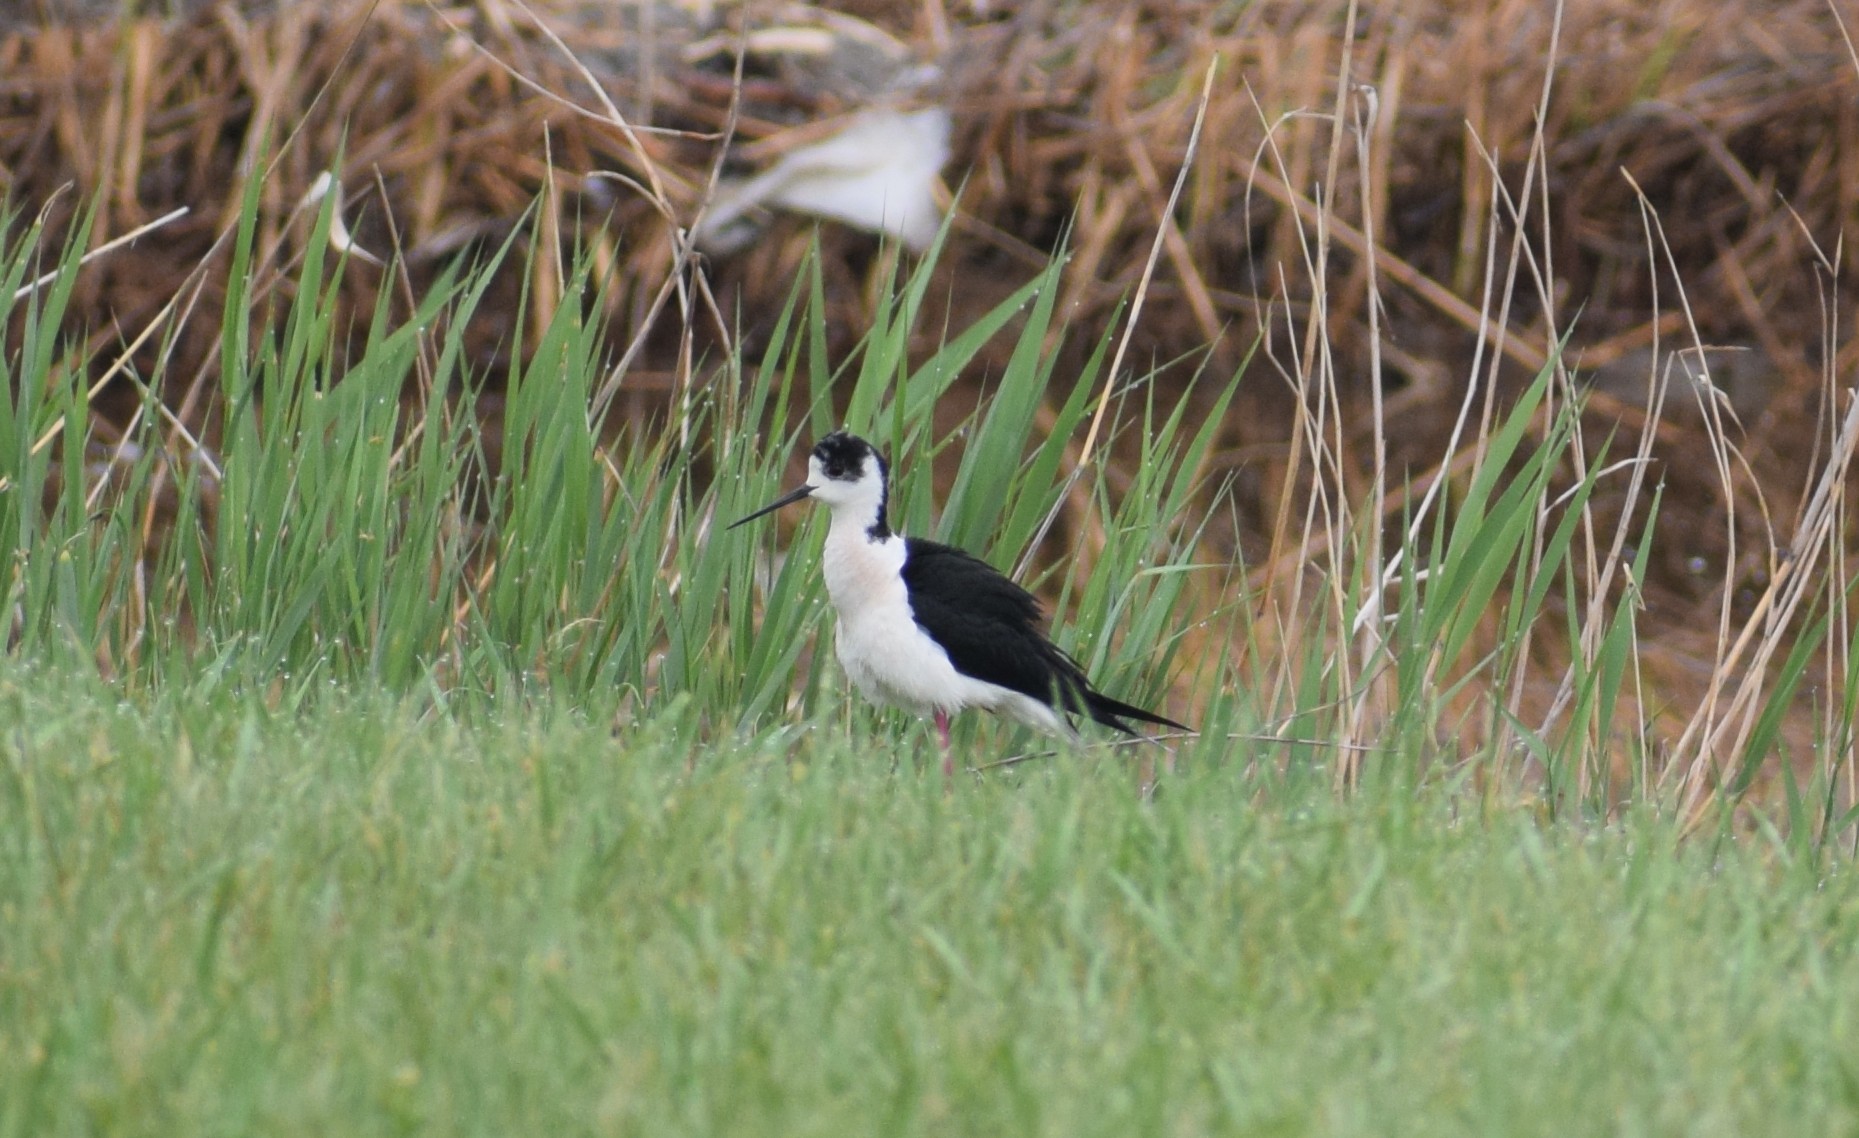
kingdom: Animalia
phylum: Chordata
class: Aves
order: Charadriiformes
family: Recurvirostridae
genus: Himantopus
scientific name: Himantopus himantopus
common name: Black-winged stilt
